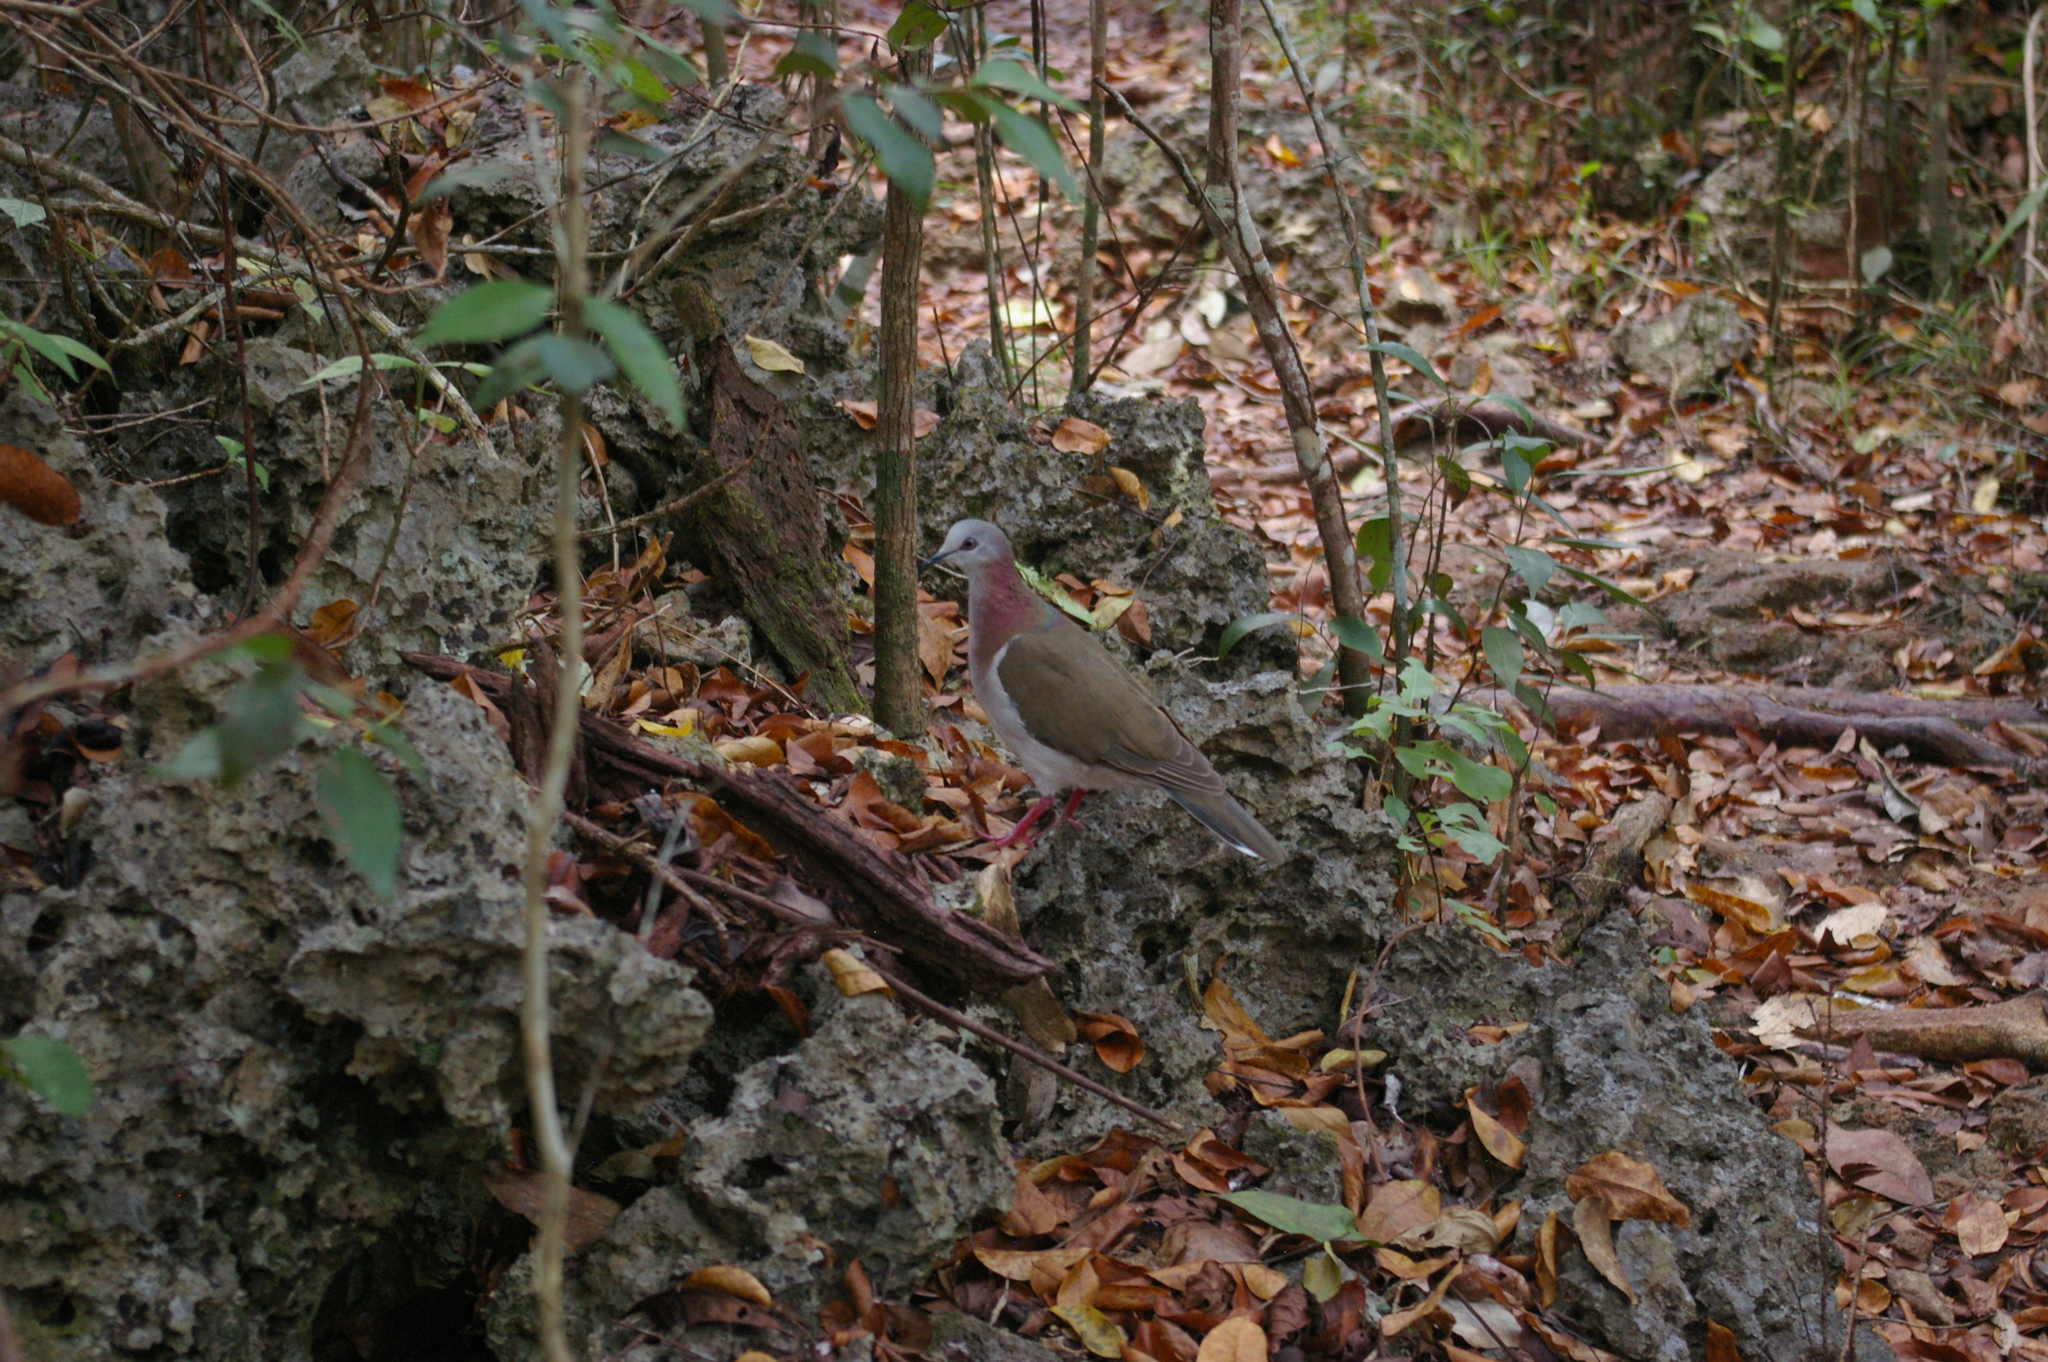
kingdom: Animalia
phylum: Chordata
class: Aves
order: Columbiformes
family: Columbidae
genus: Leptotila
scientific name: Leptotila jamaicensis
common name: Caribbean dove
